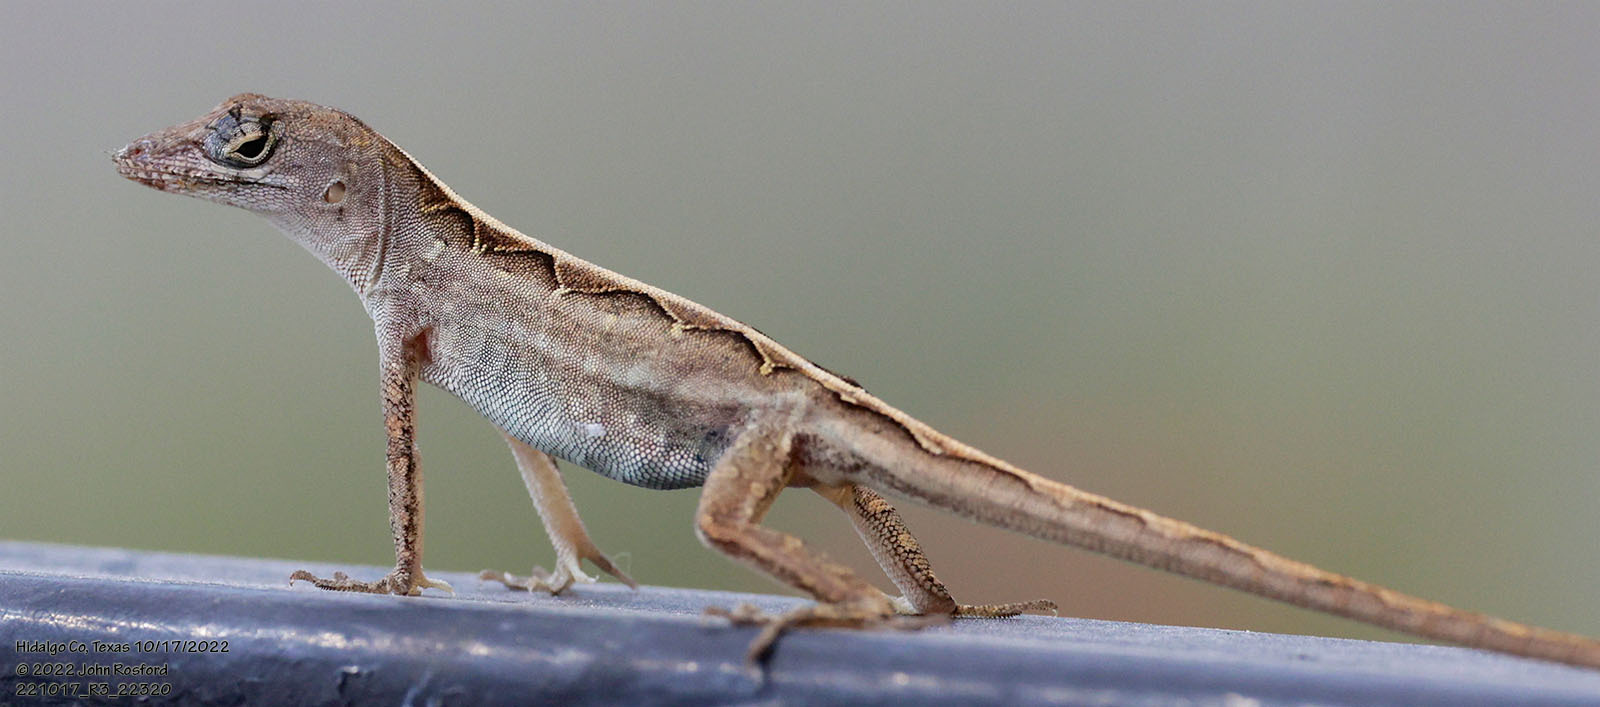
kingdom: Animalia
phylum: Chordata
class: Squamata
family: Dactyloidae
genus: Anolis
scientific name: Anolis sagrei
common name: Brown anole
